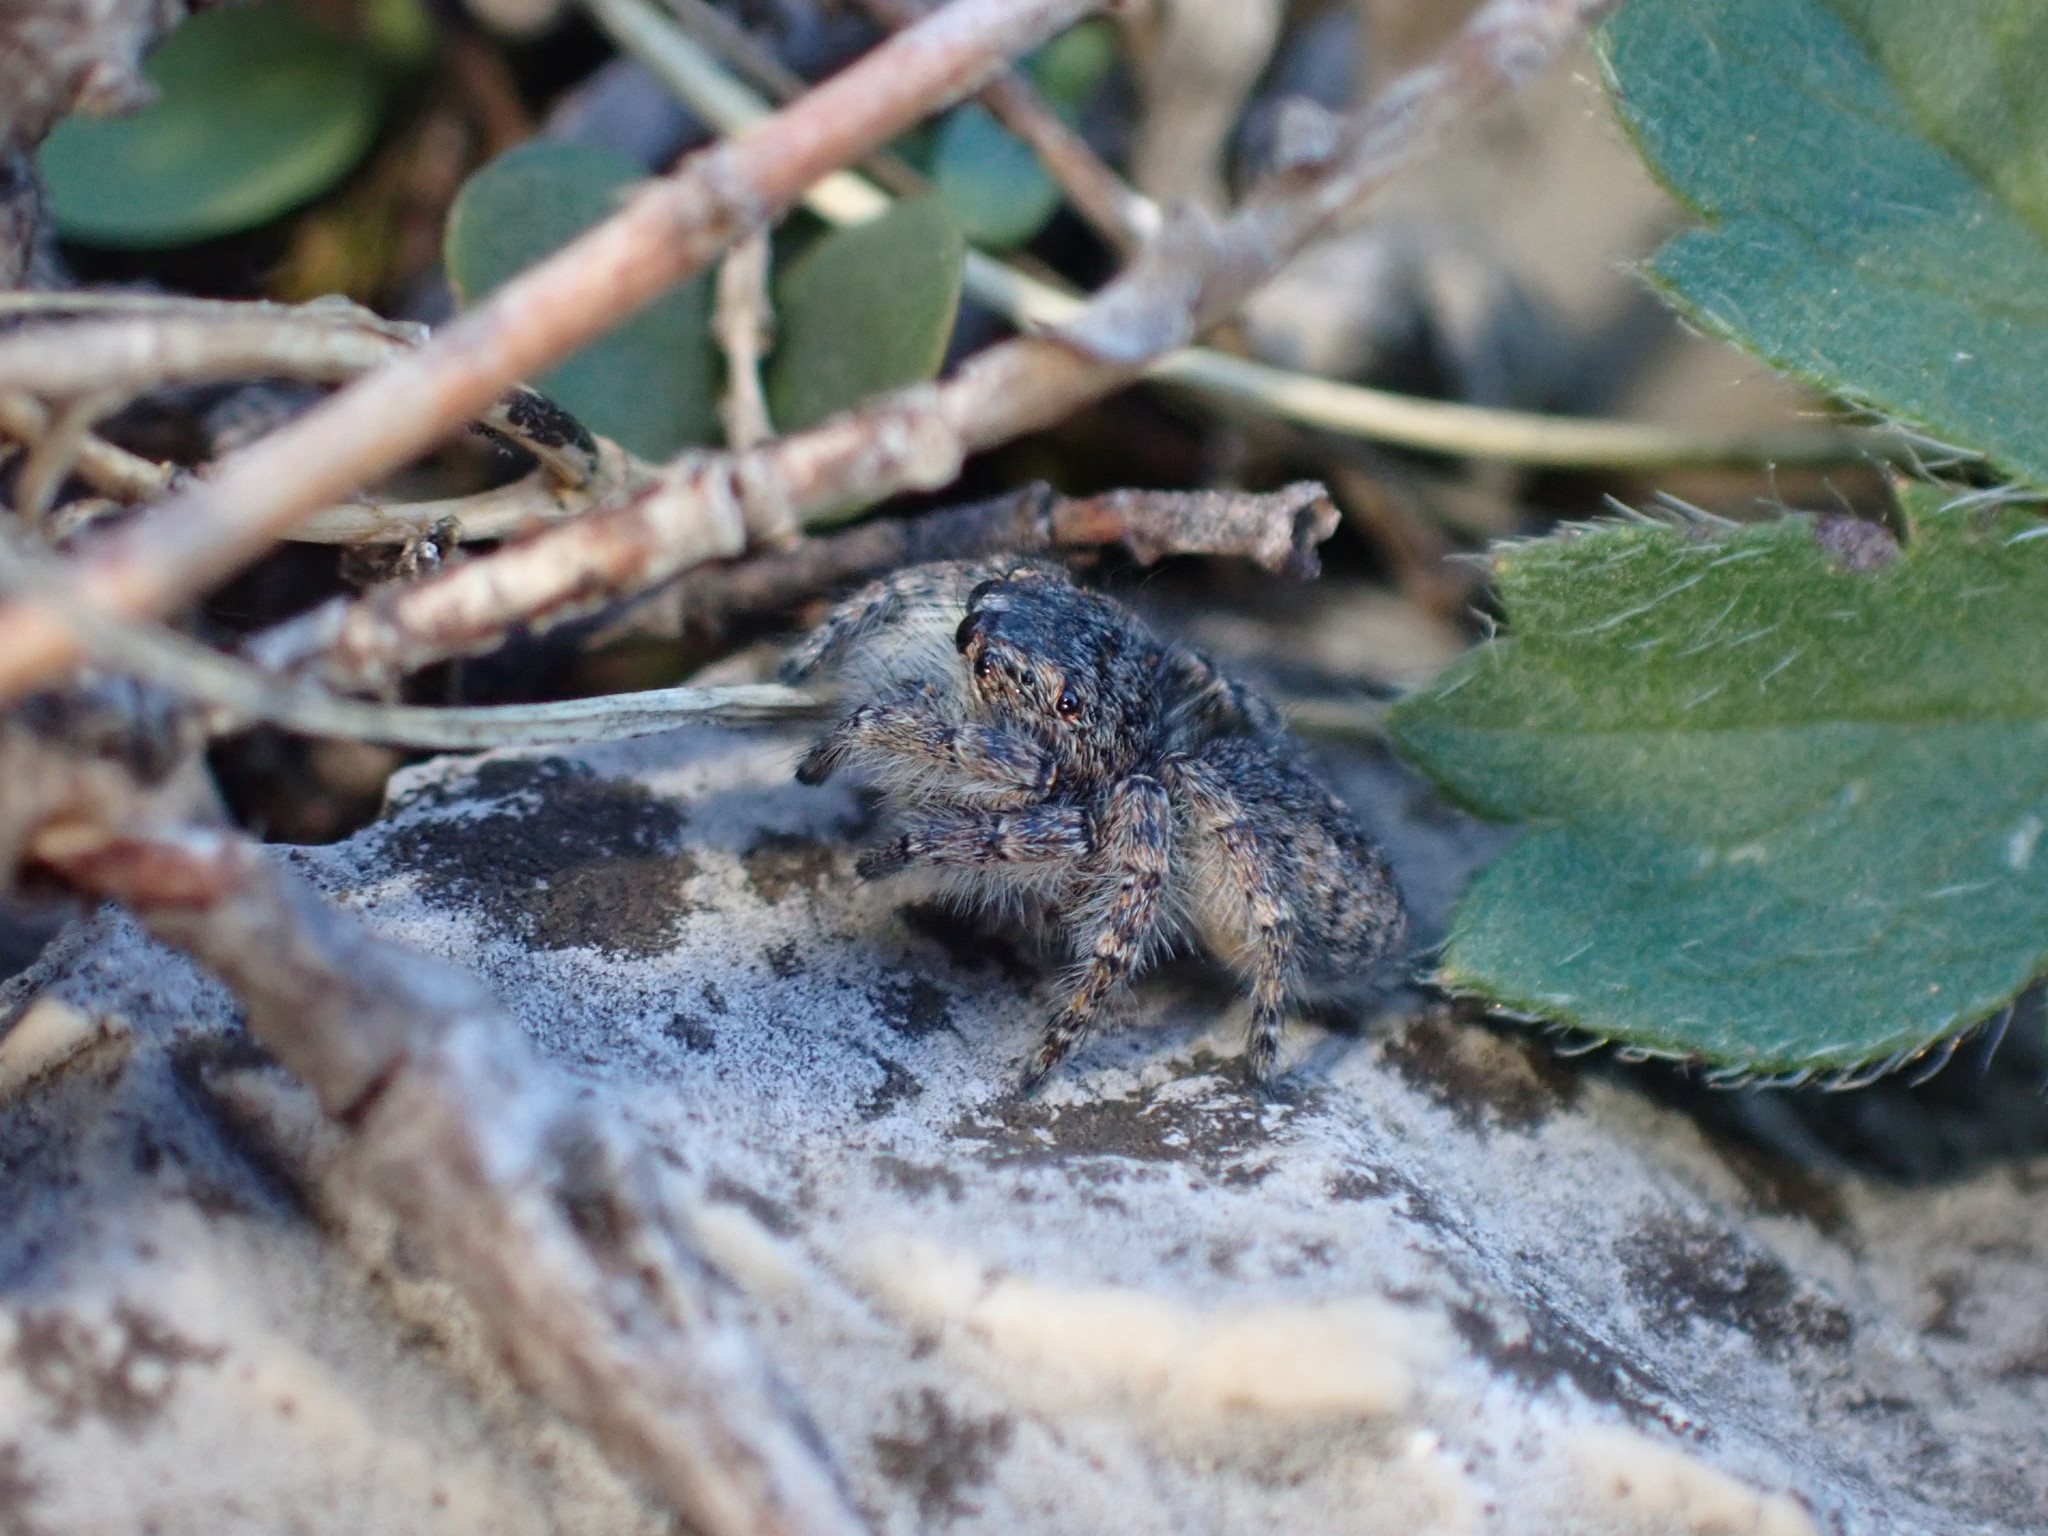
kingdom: Animalia
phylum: Arthropoda
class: Arachnida
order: Araneae
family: Salticidae
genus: Philaeus
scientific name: Philaeus chrysops
